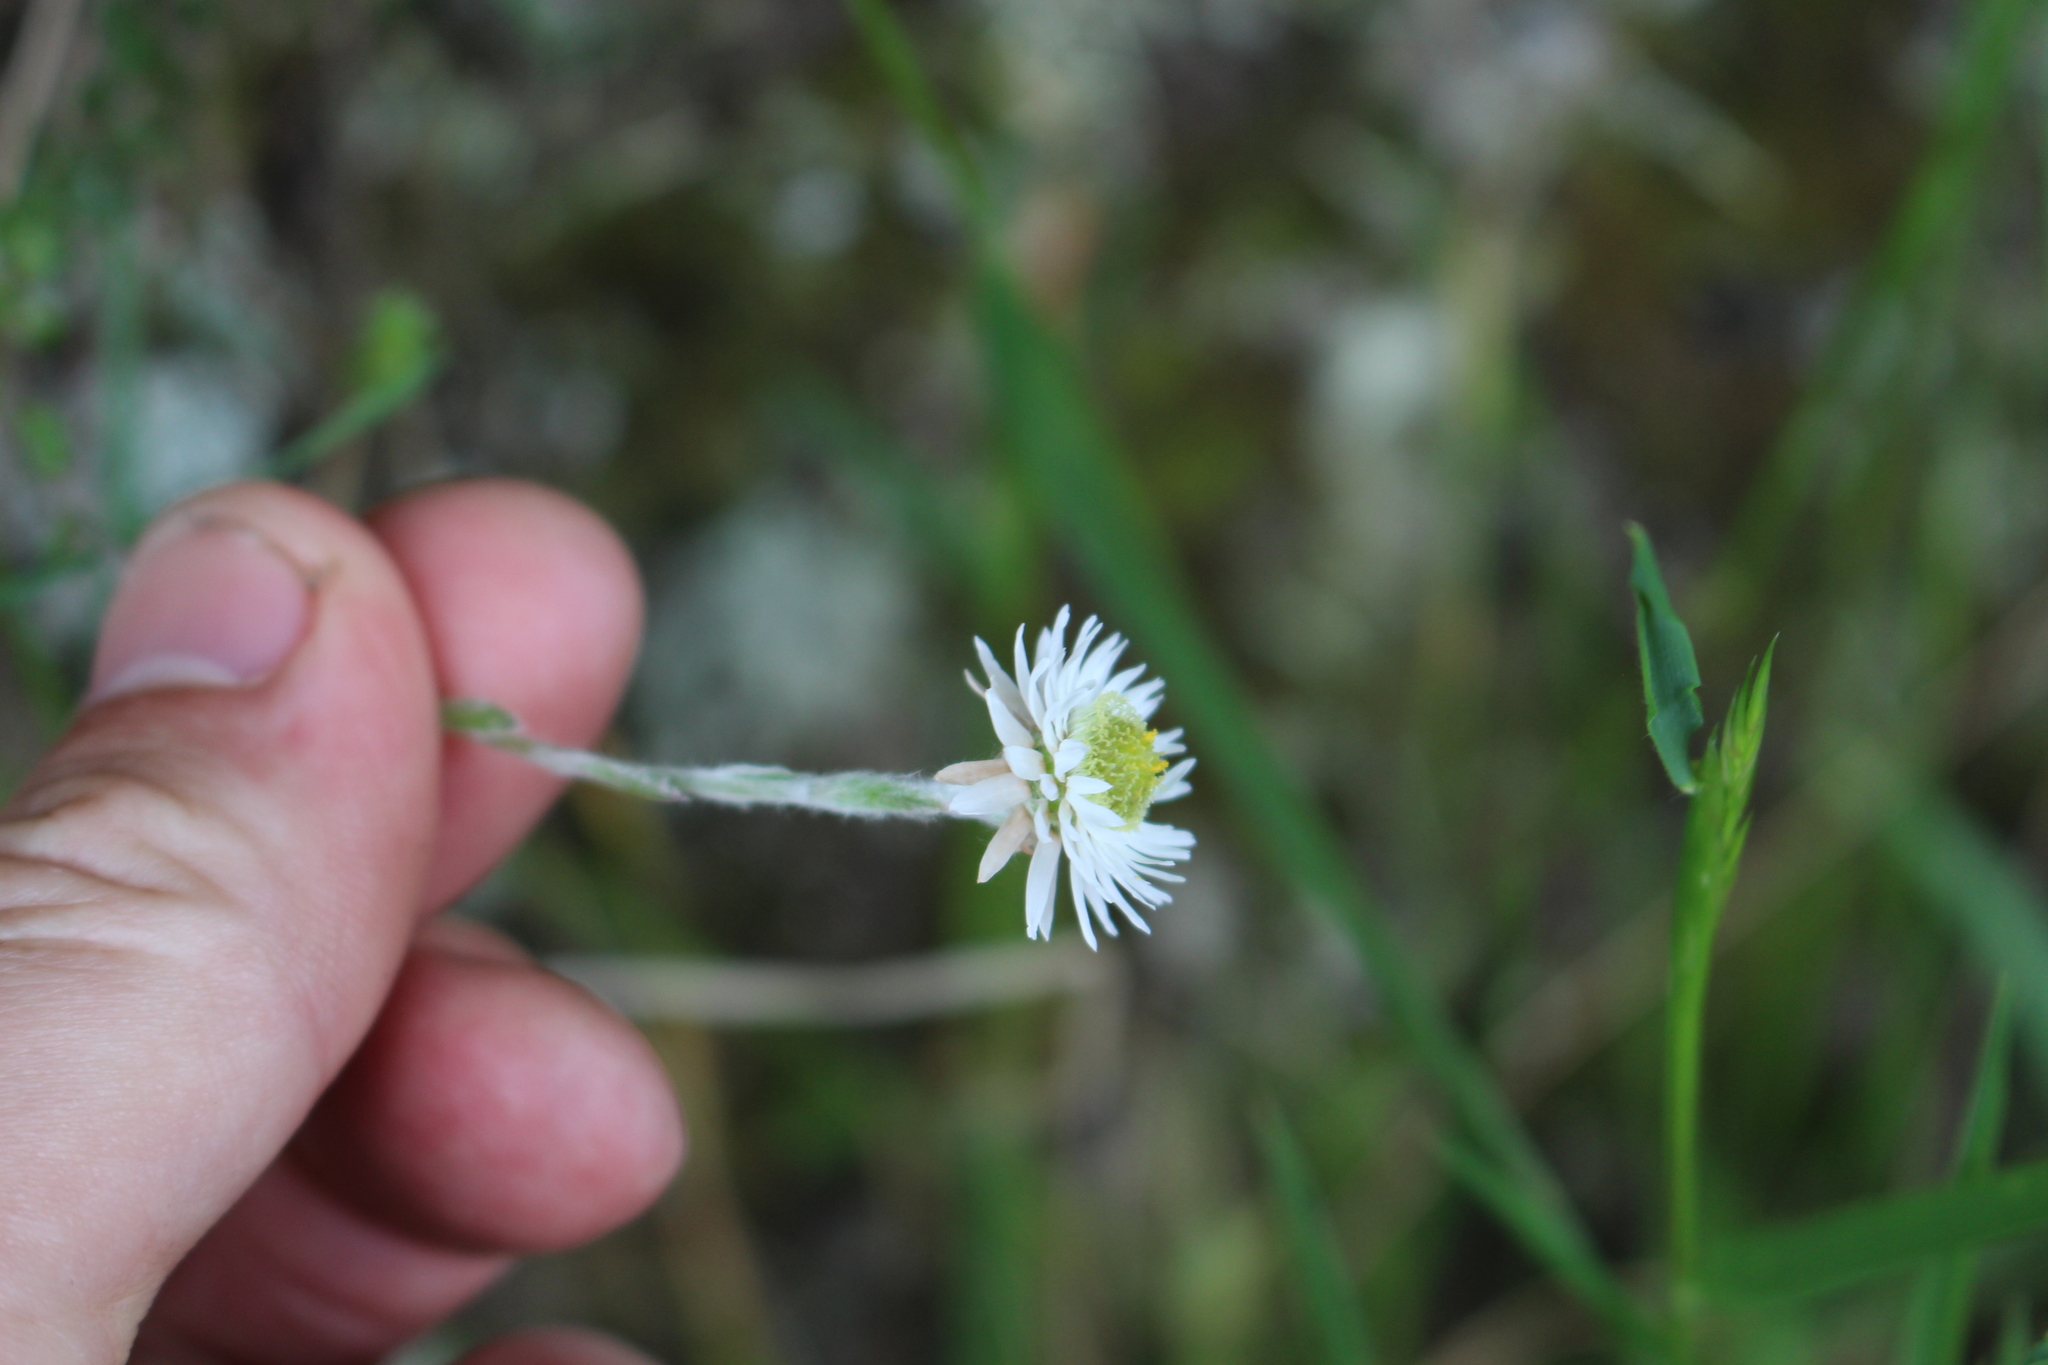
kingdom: Plantae
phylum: Tracheophyta
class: Magnoliopsida
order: Asterales
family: Asteraceae
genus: Anaphalioides
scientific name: Anaphalioides bellidioides
